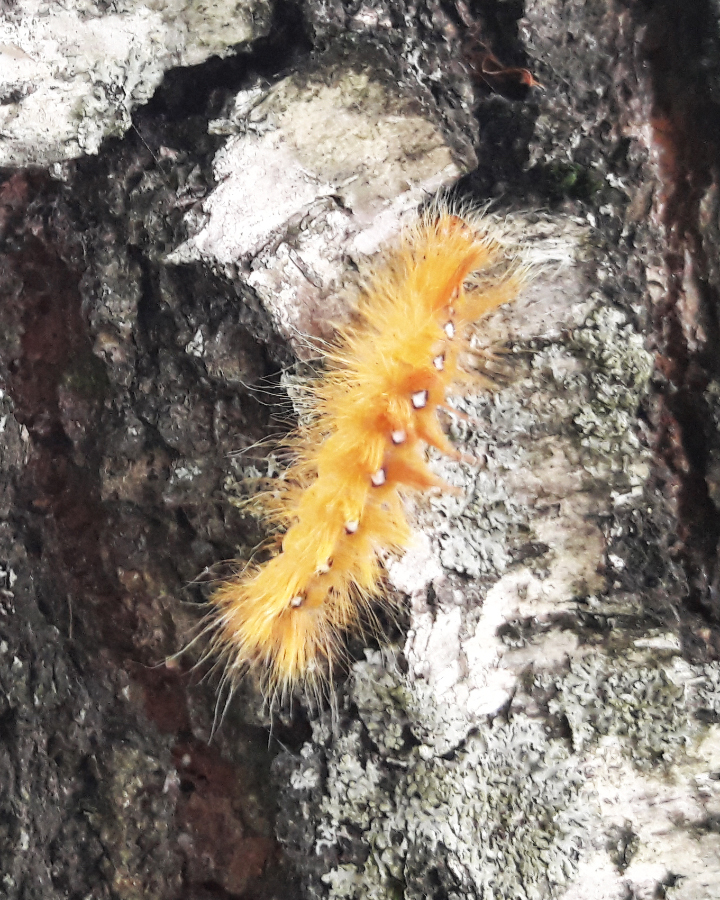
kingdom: Animalia
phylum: Arthropoda
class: Insecta
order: Lepidoptera
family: Noctuidae
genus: Acronicta
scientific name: Acronicta aceris
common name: Sycamore
